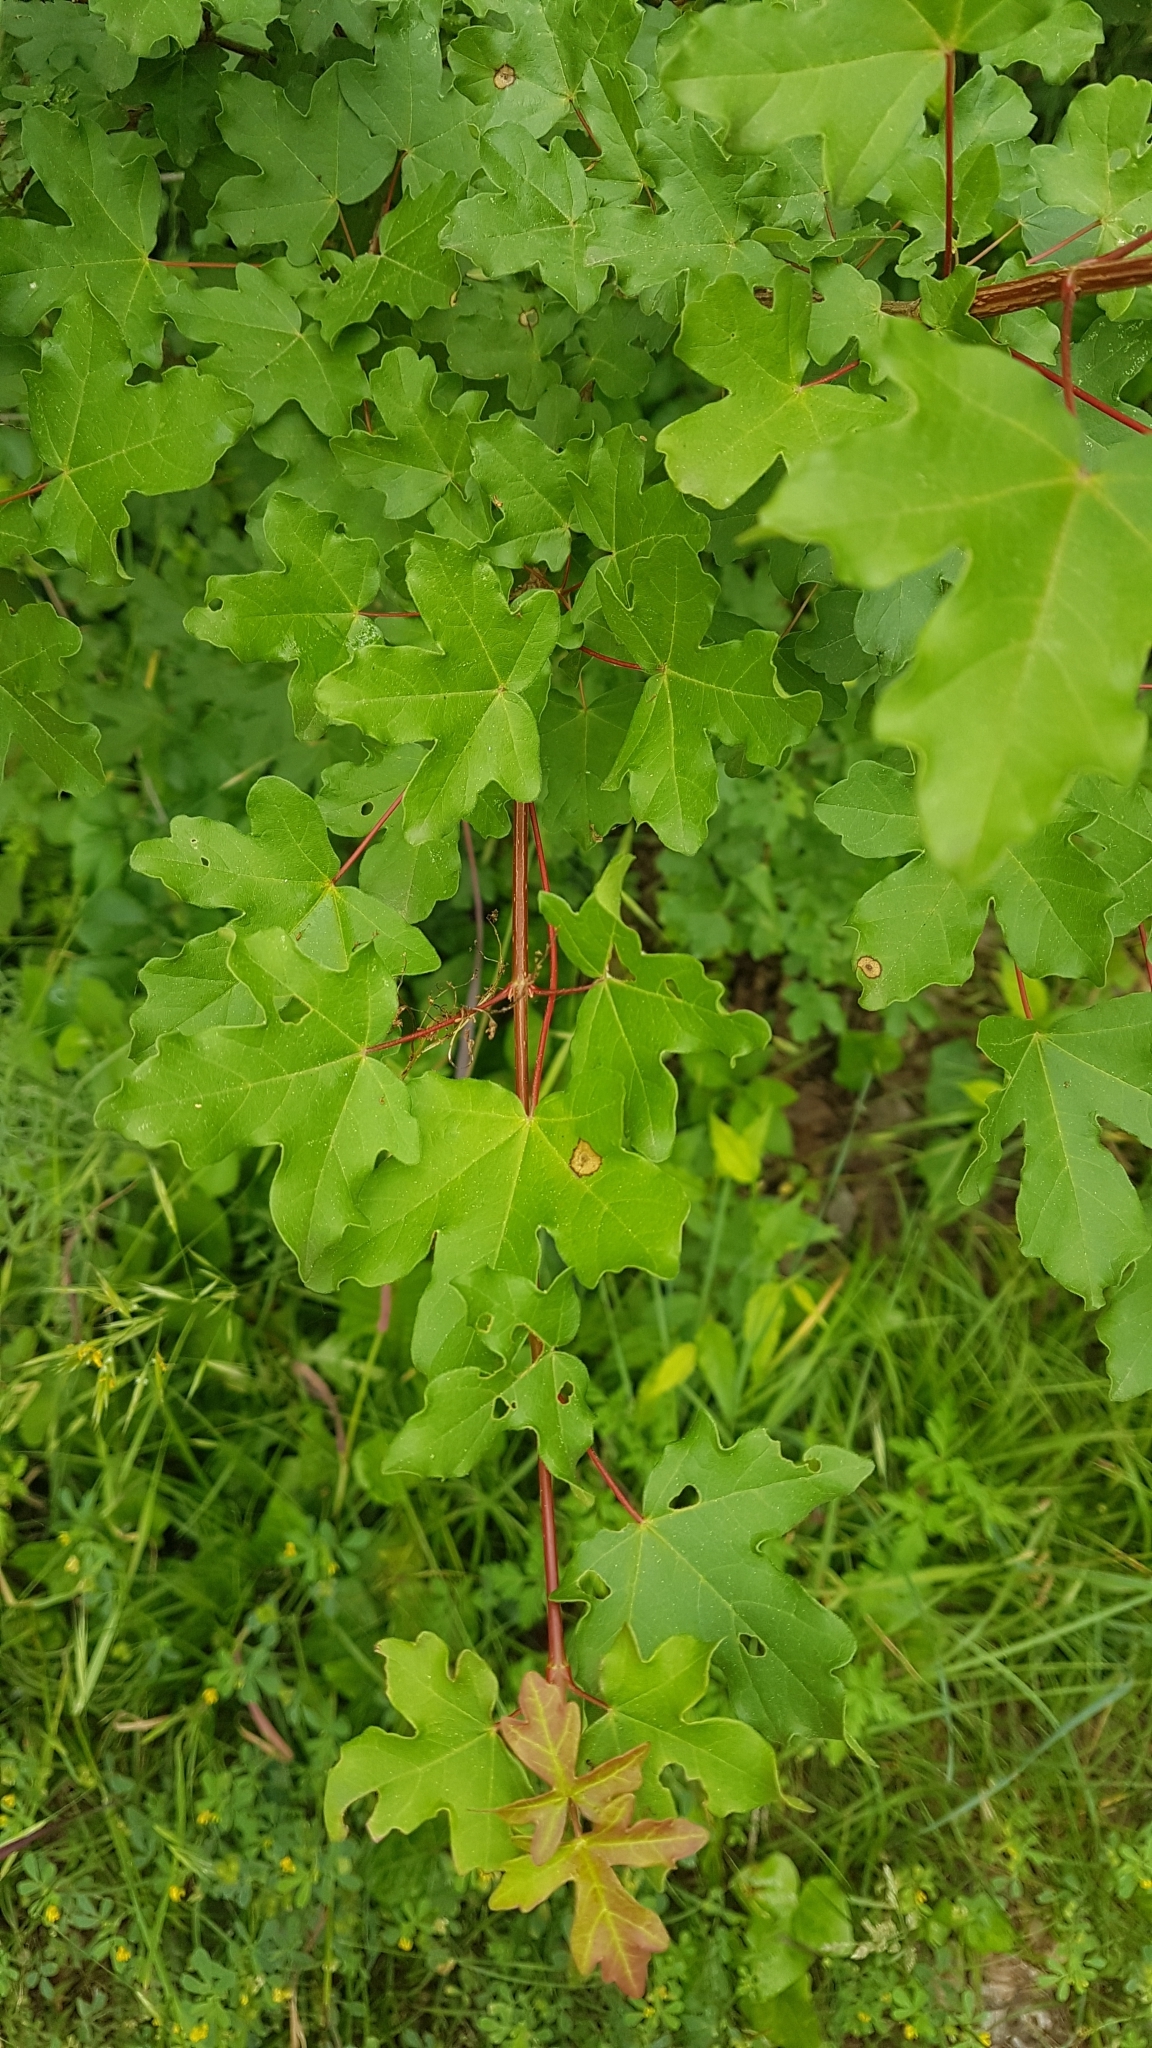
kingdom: Plantae
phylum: Tracheophyta
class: Magnoliopsida
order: Sapindales
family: Sapindaceae
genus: Acer
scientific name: Acer campestre
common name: Field maple
